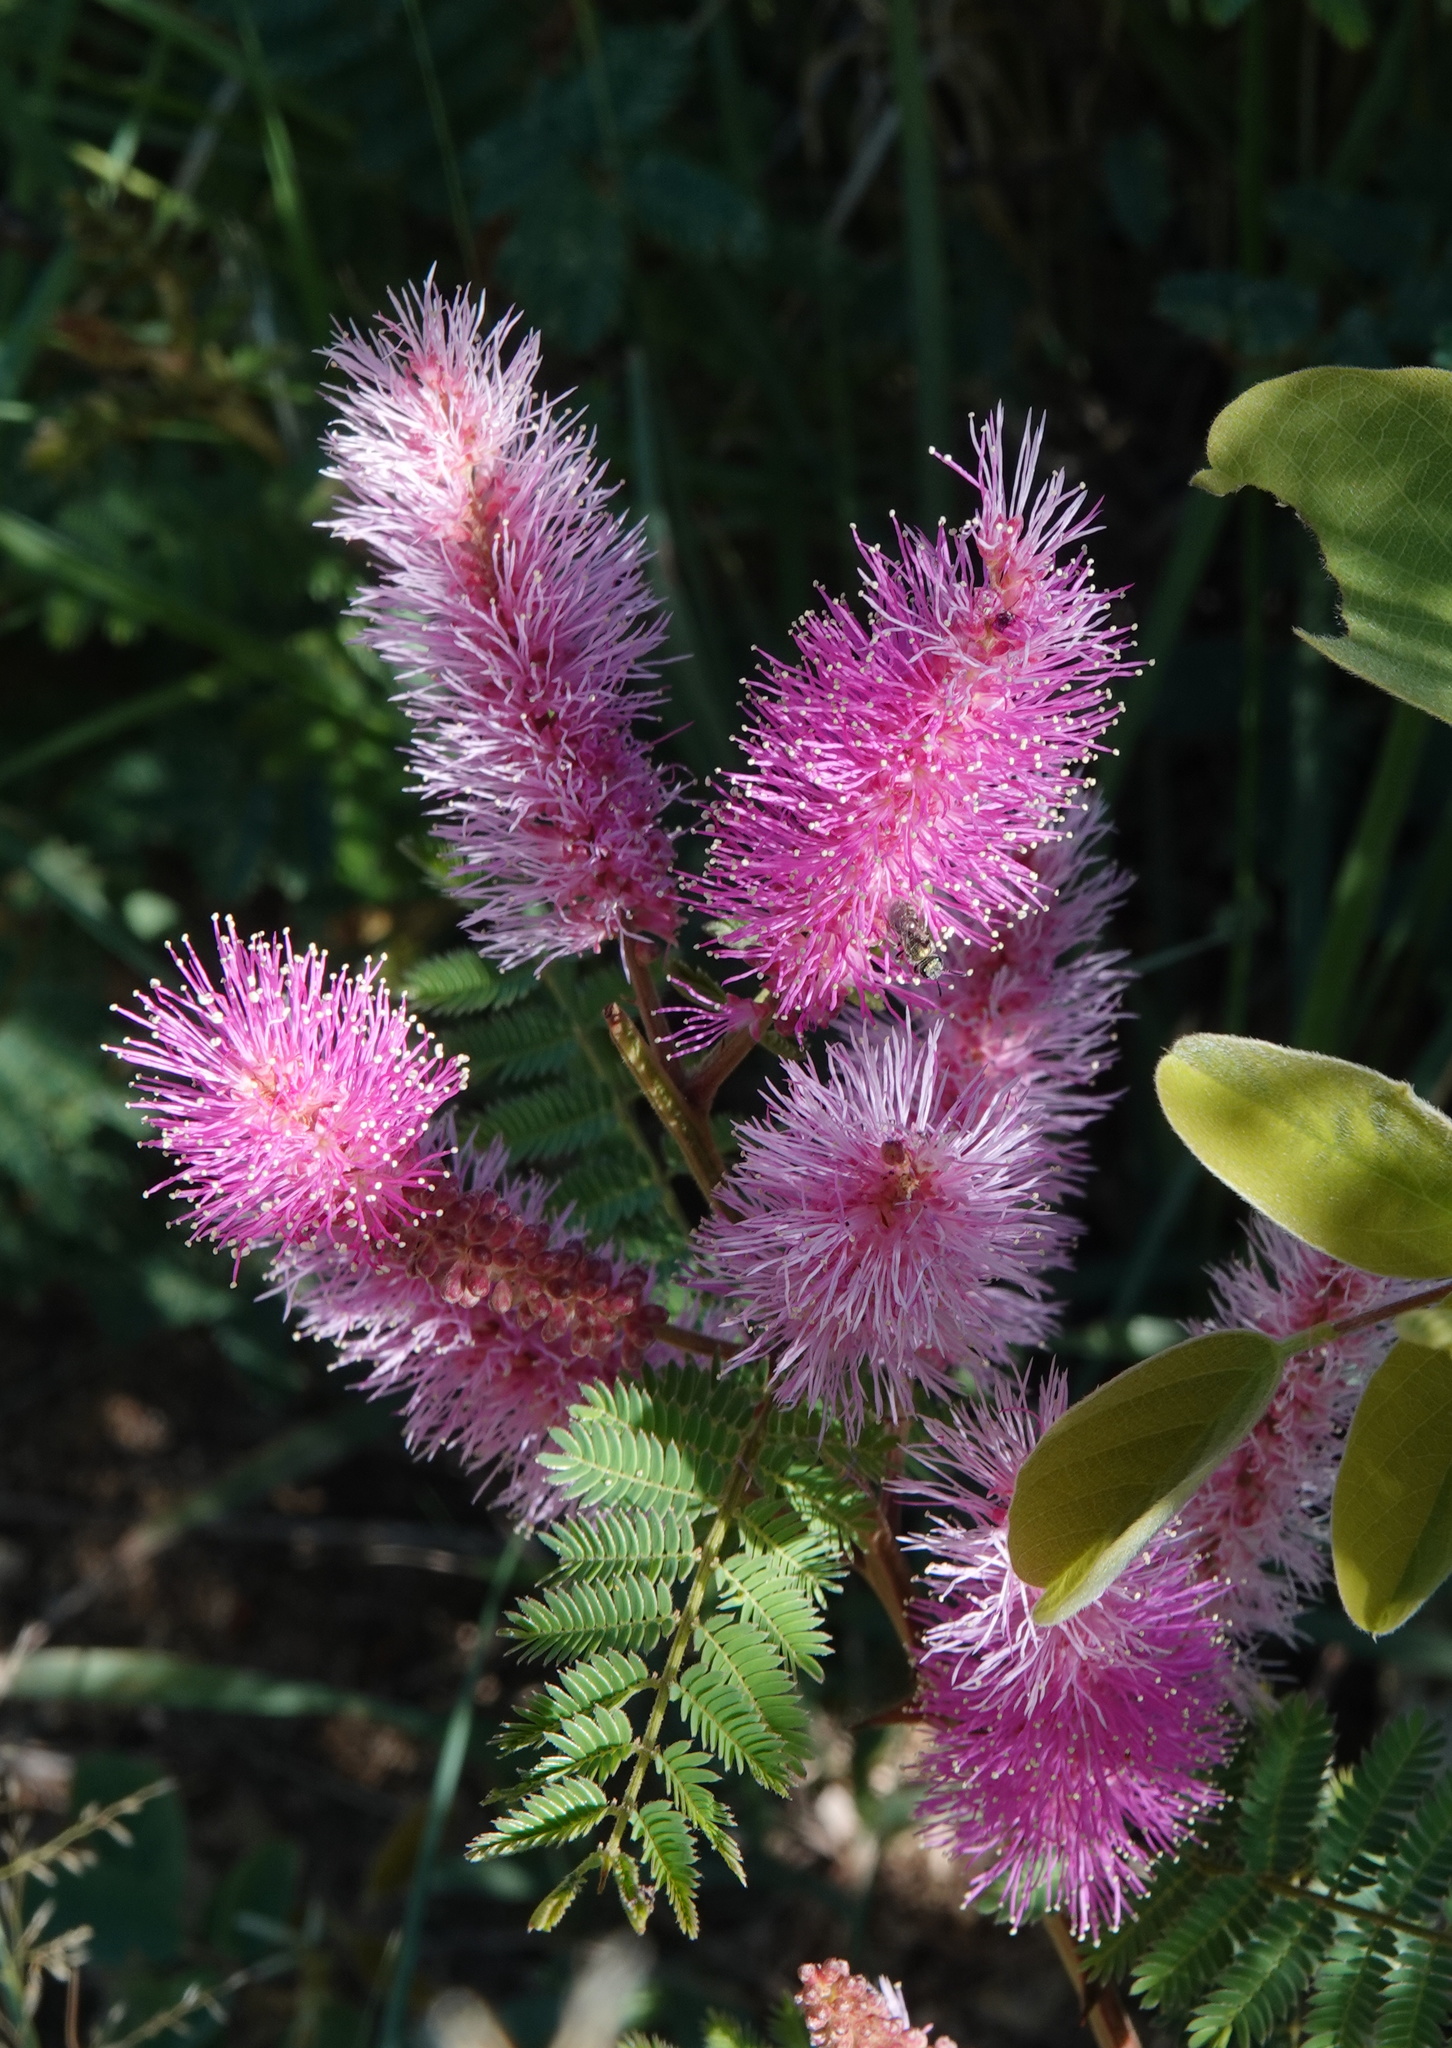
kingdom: Plantae
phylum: Tracheophyta
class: Magnoliopsida
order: Fabales
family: Fabaceae
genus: Mimosa
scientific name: Mimosa dysocarpa
